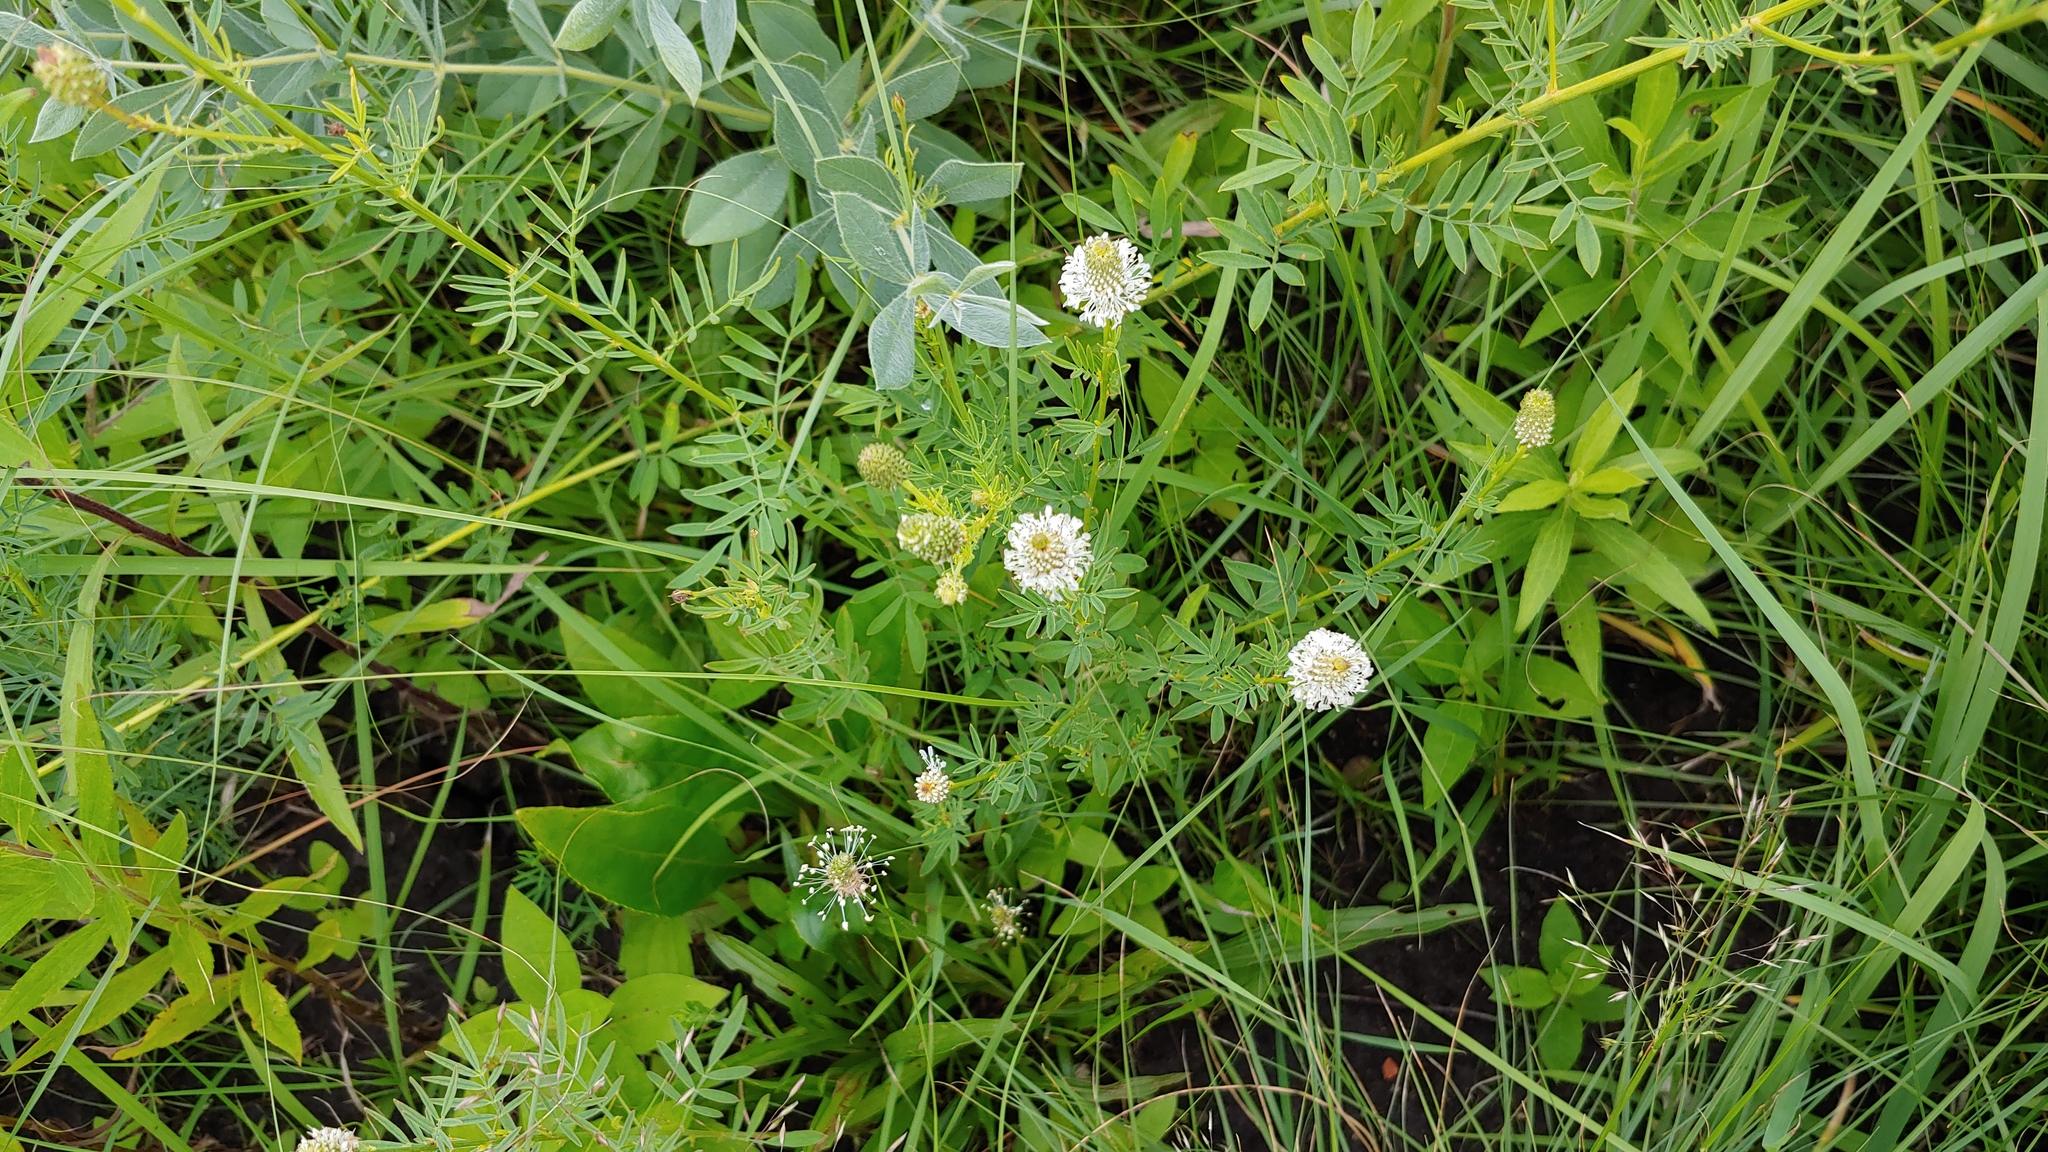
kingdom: Plantae
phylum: Tracheophyta
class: Magnoliopsida
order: Fabales
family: Fabaceae
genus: Dalea
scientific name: Dalea candida
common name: White prairie-clover
